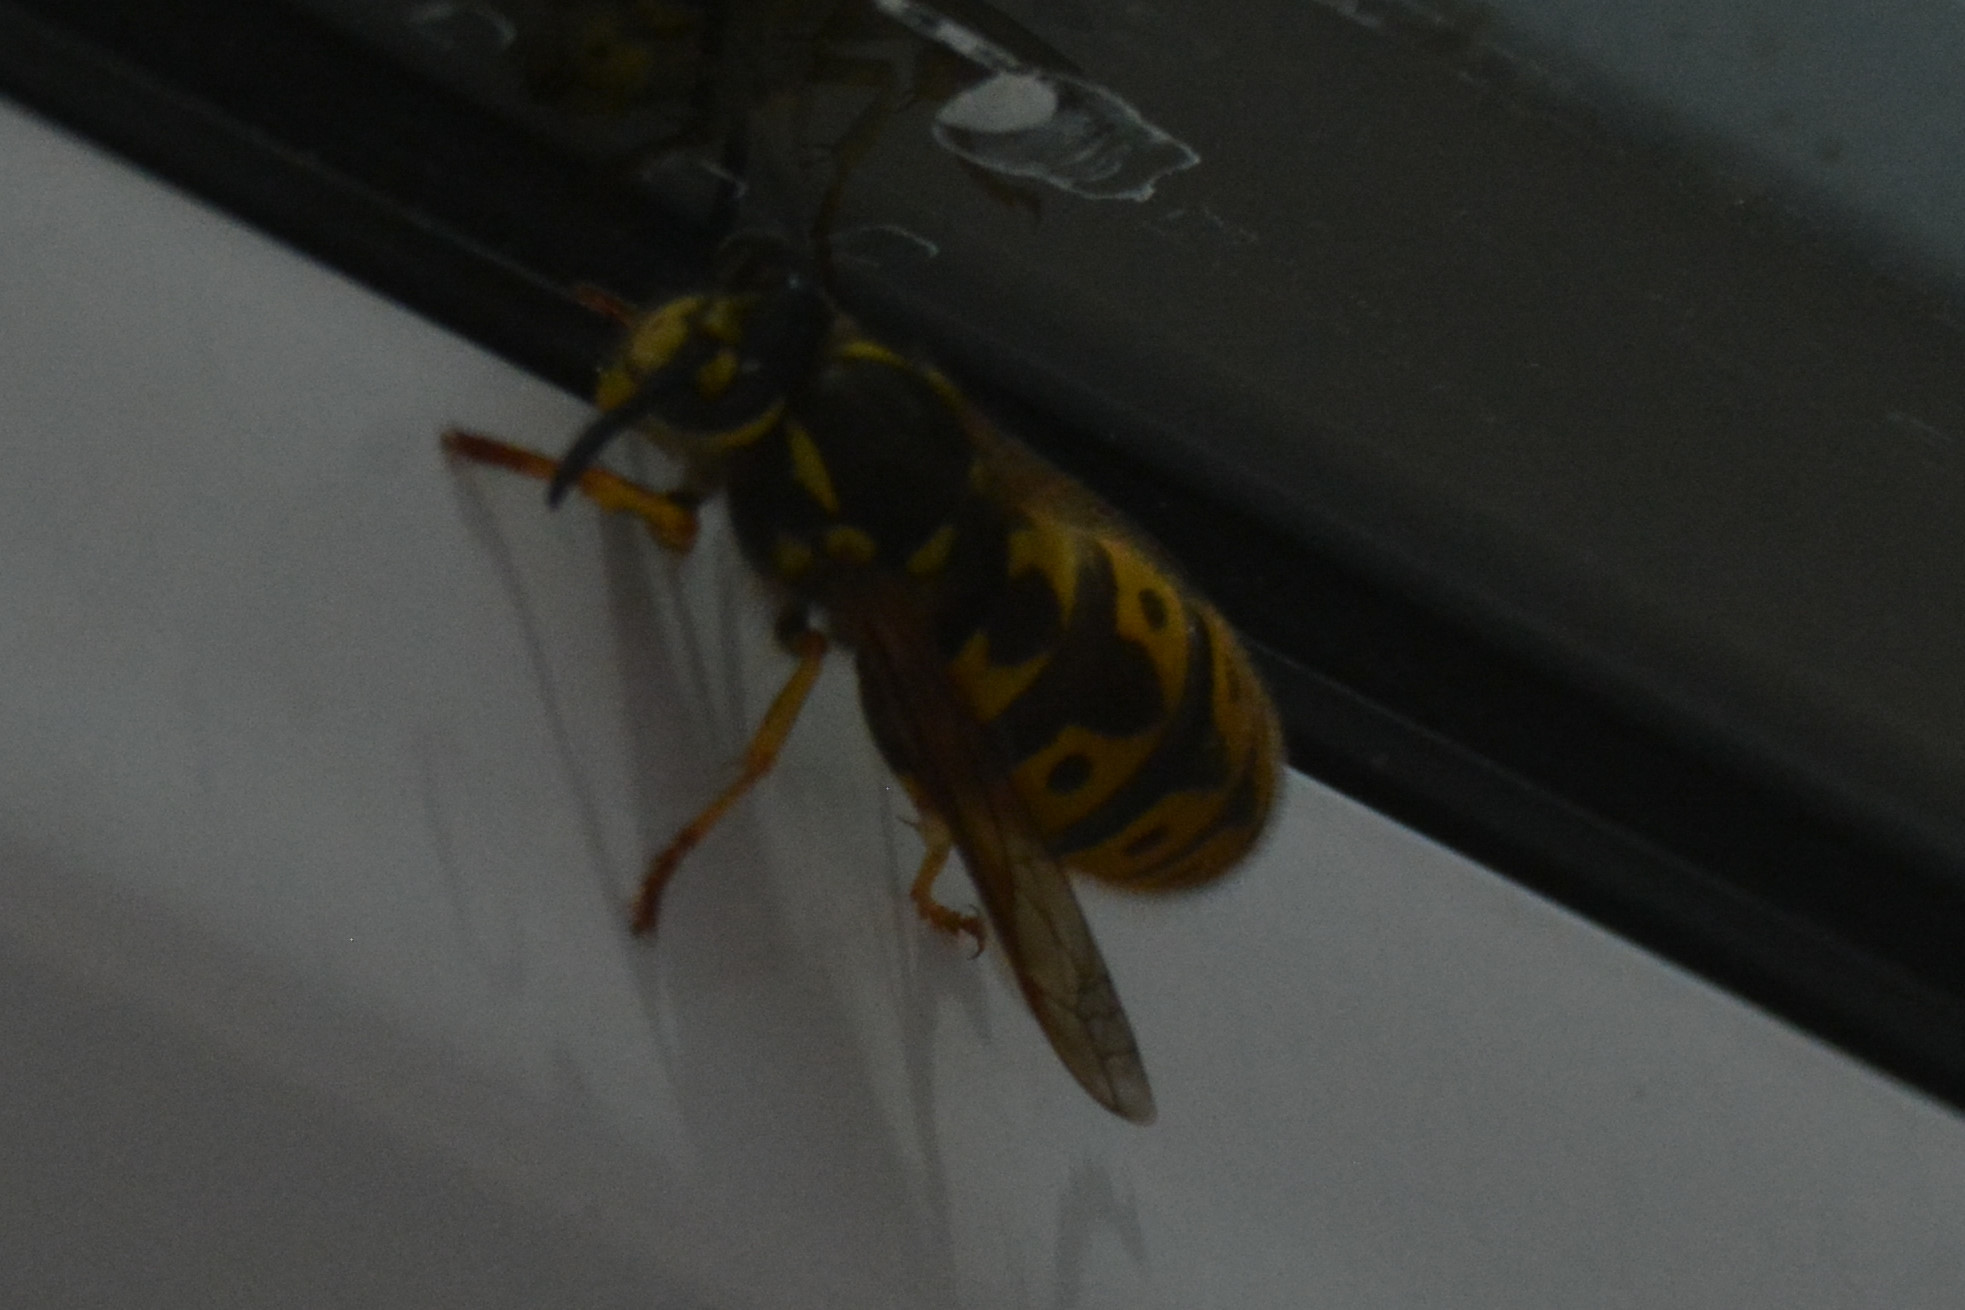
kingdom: Animalia
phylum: Arthropoda
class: Insecta
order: Hymenoptera
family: Vespidae
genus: Vespula
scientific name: Vespula germanica
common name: German wasp
